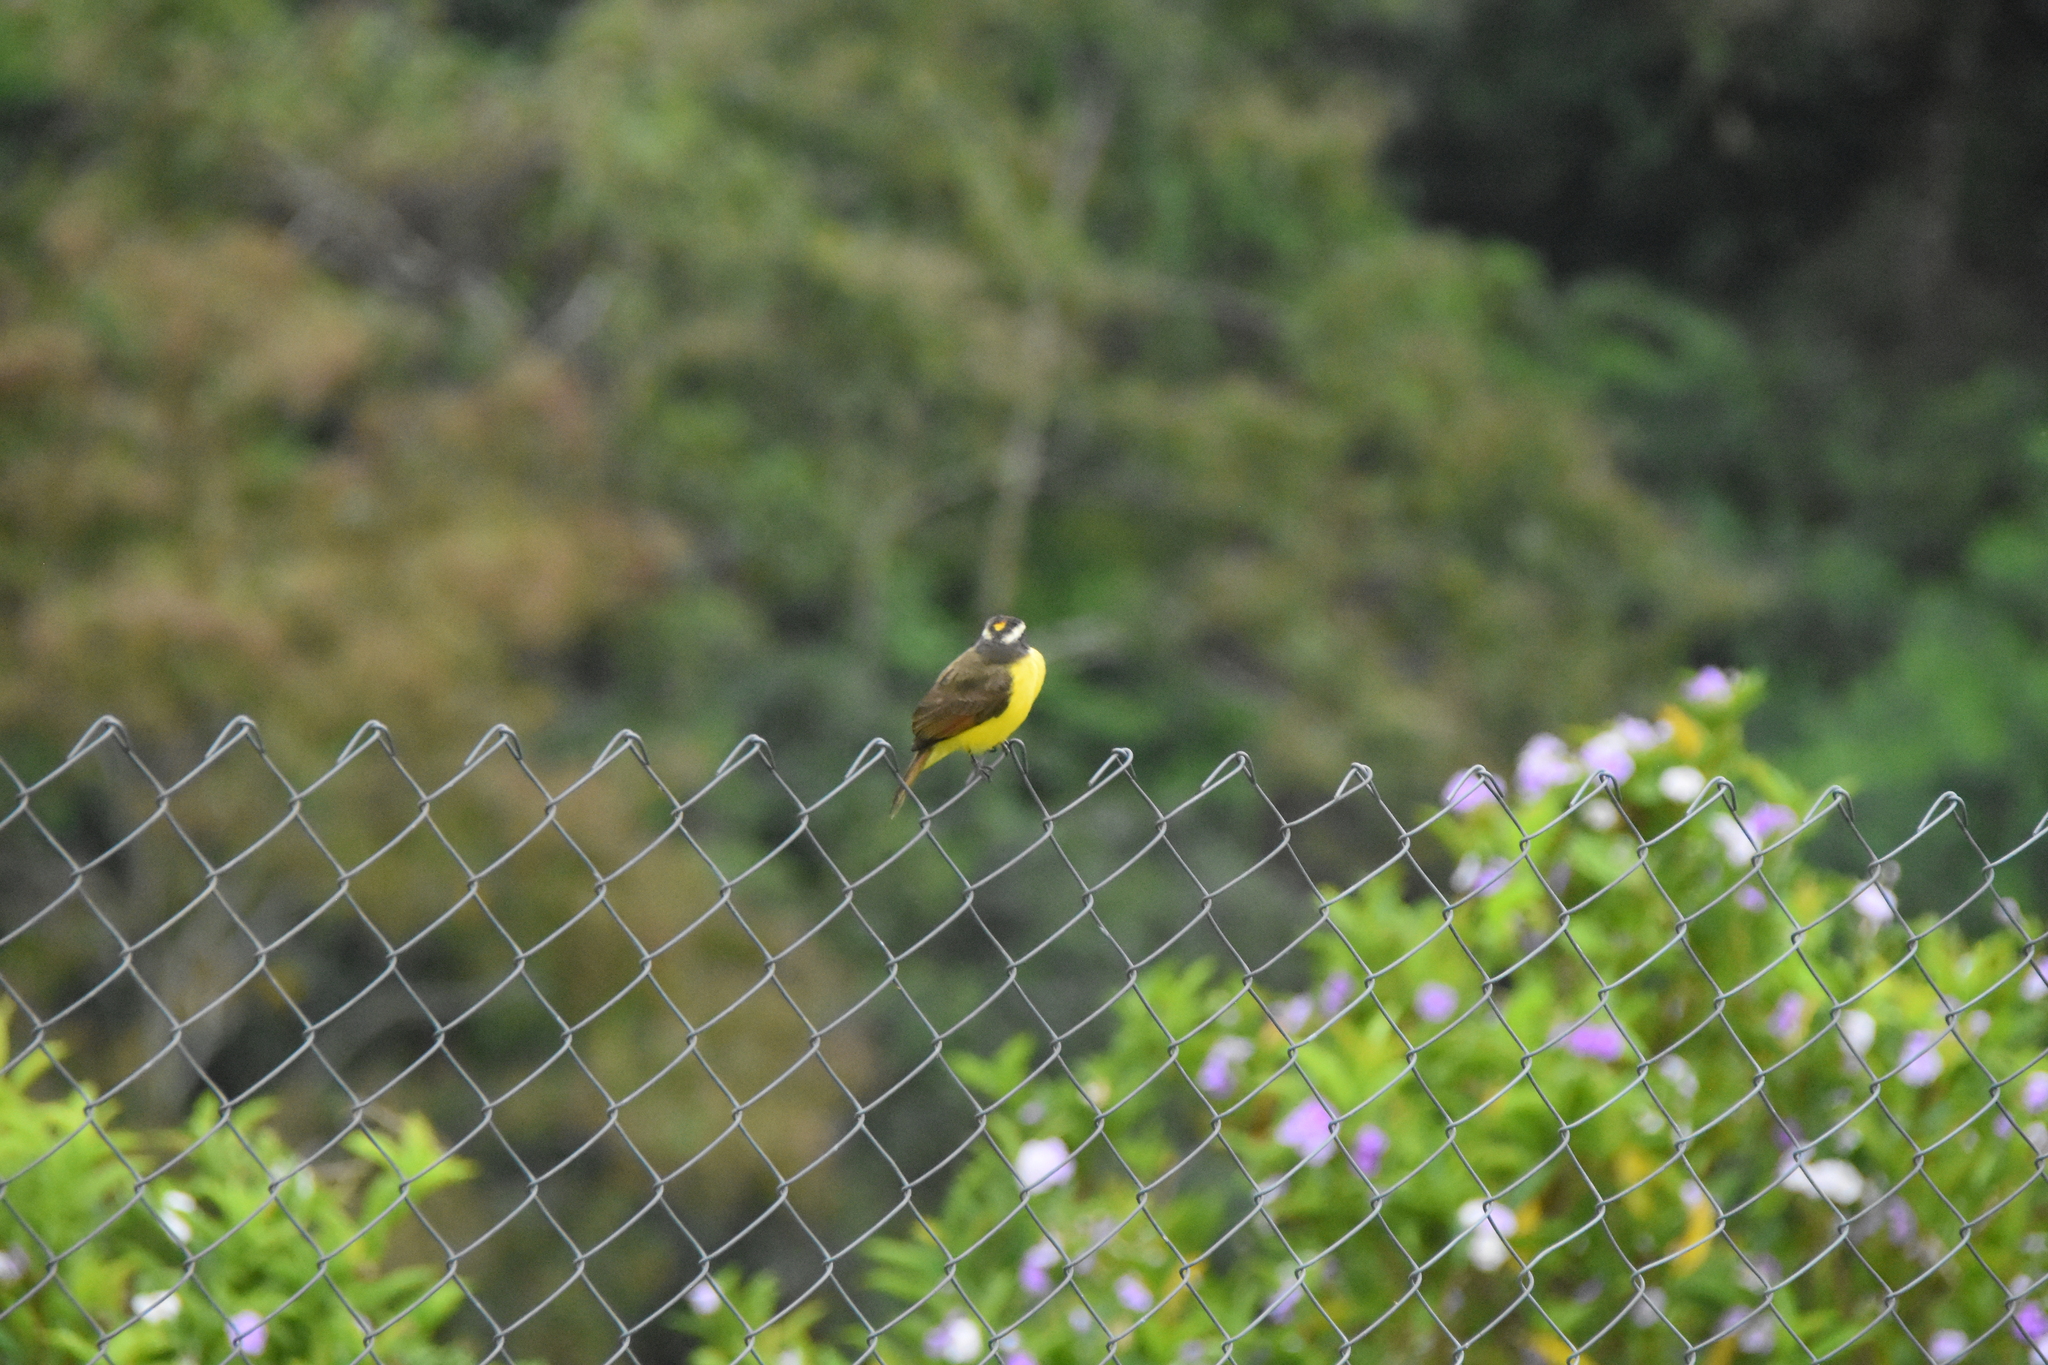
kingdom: Animalia
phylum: Chordata
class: Aves
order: Passeriformes
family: Tyrannidae
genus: Myiozetetes
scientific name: Myiozetetes cayanensis
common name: Rusty-margined flycatcher
